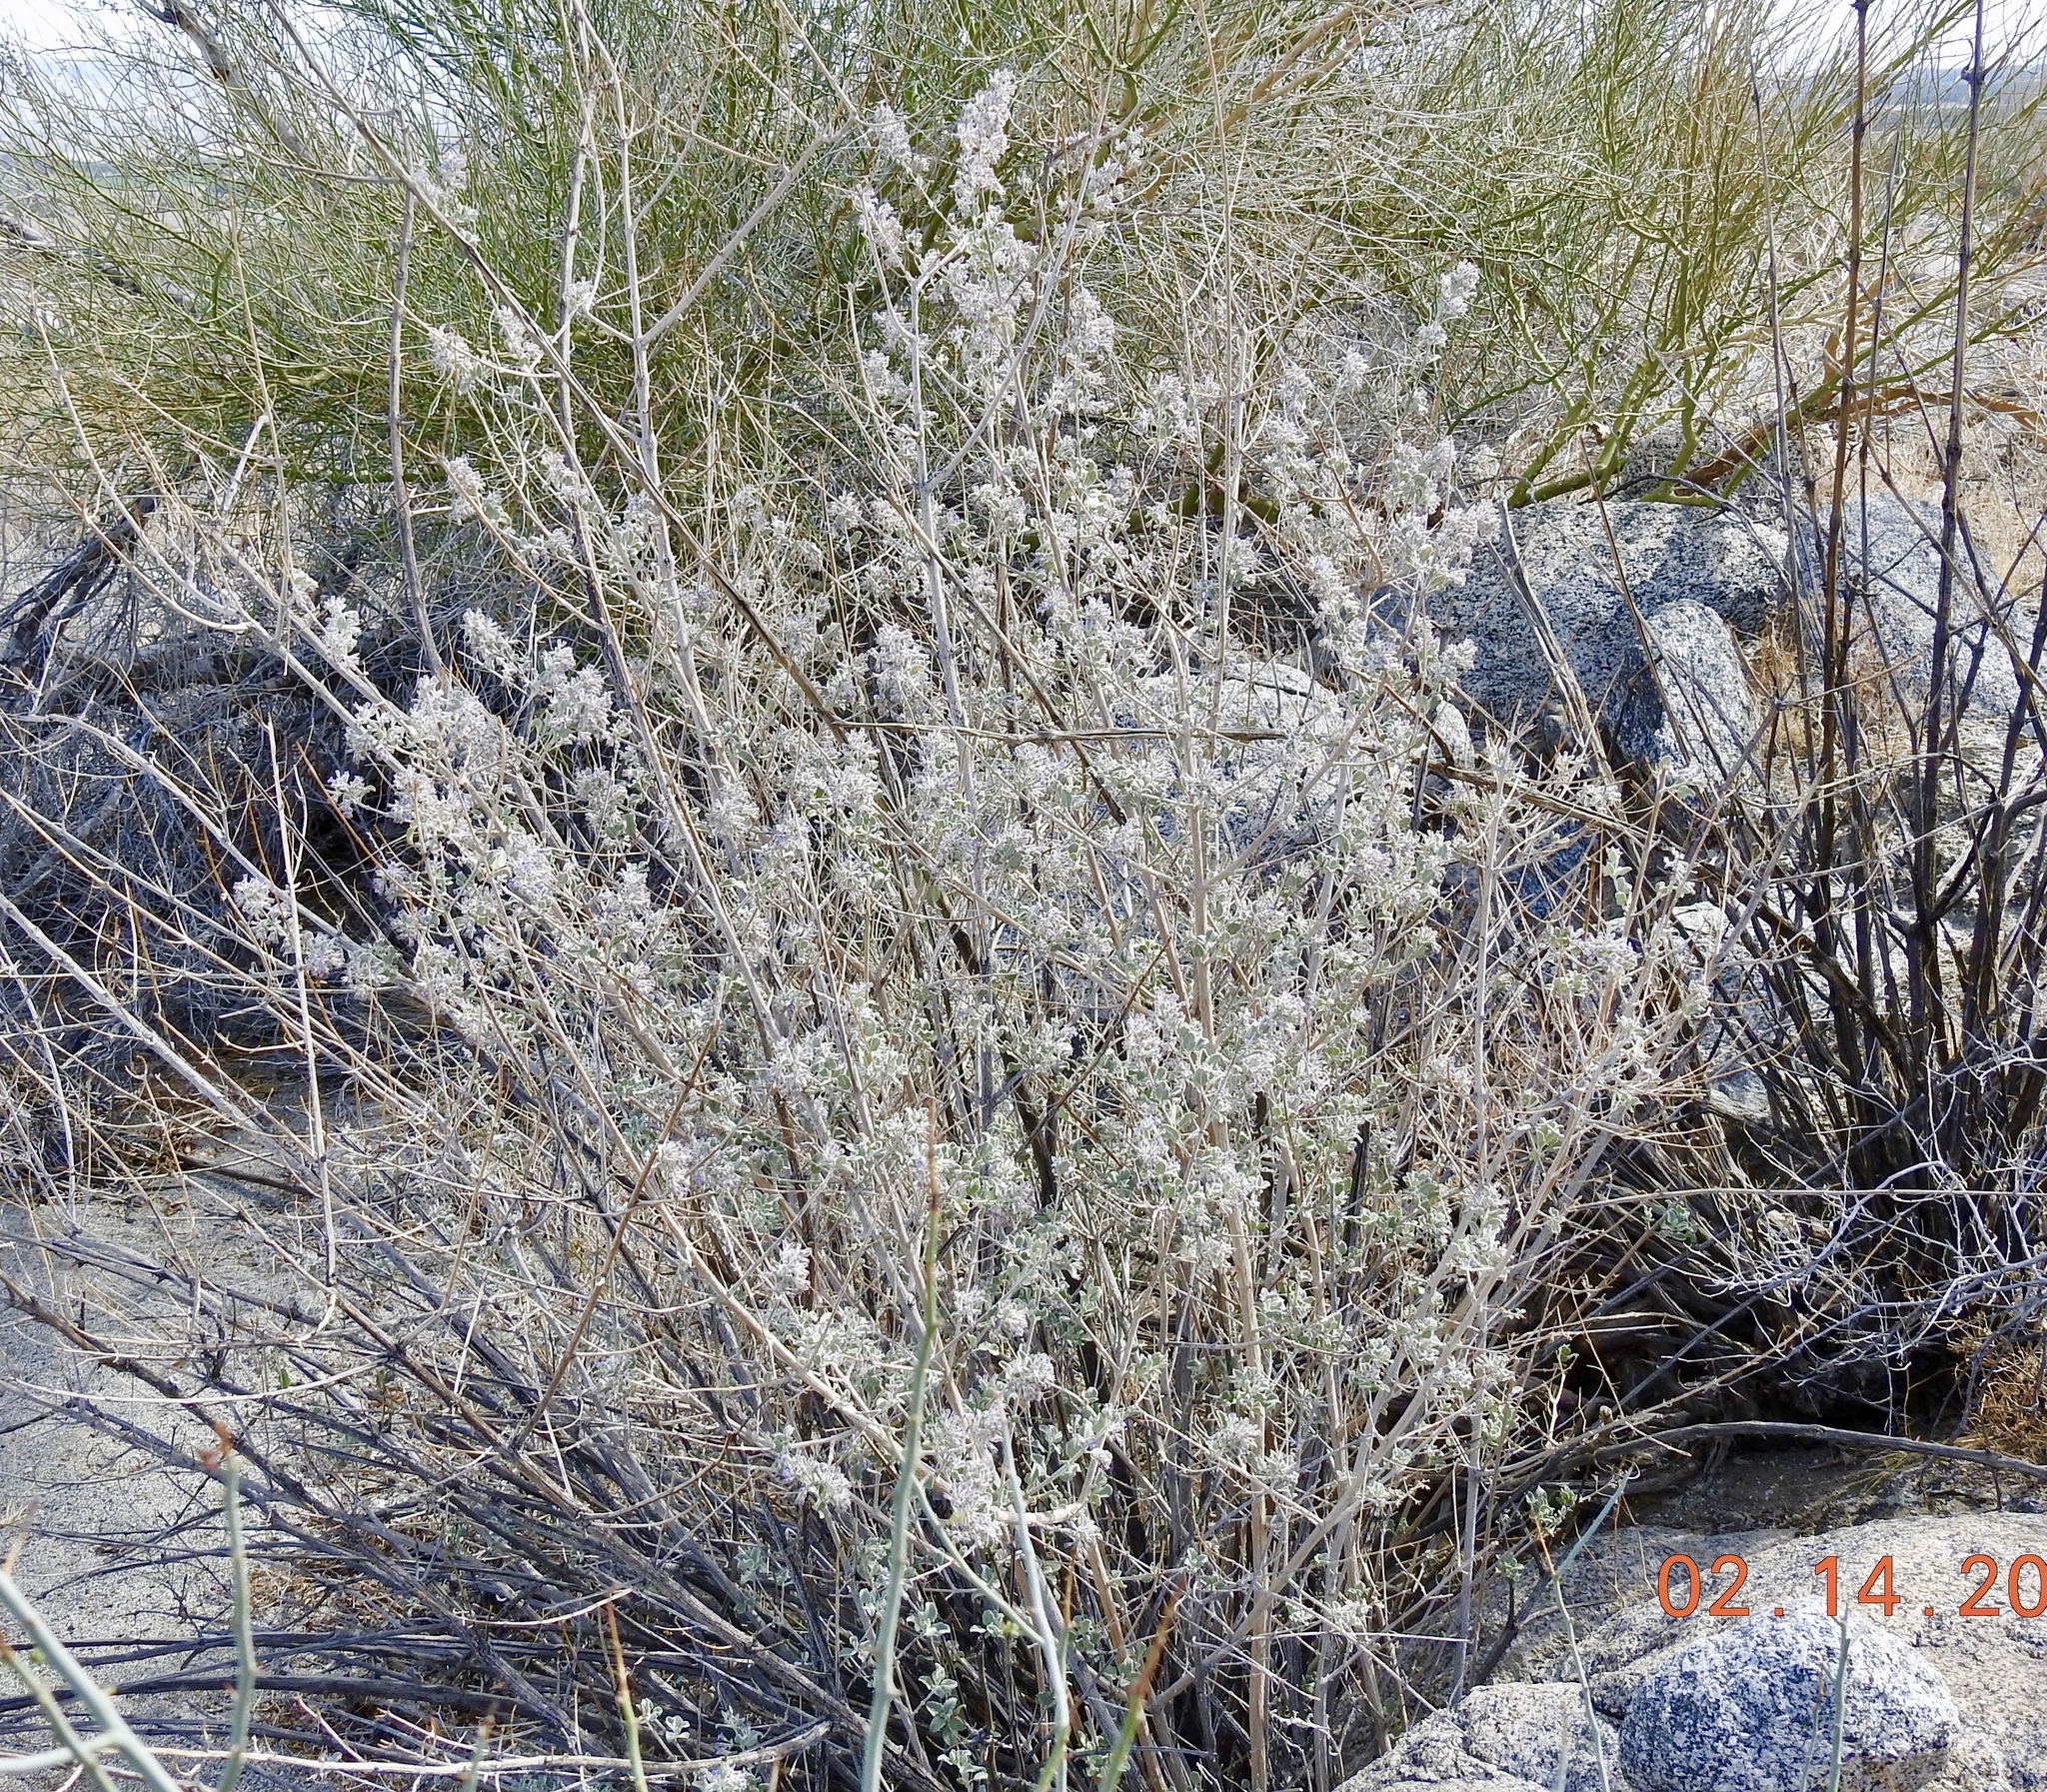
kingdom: Plantae
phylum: Tracheophyta
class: Magnoliopsida
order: Lamiales
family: Lamiaceae
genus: Condea
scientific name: Condea emoryi
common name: Chia
